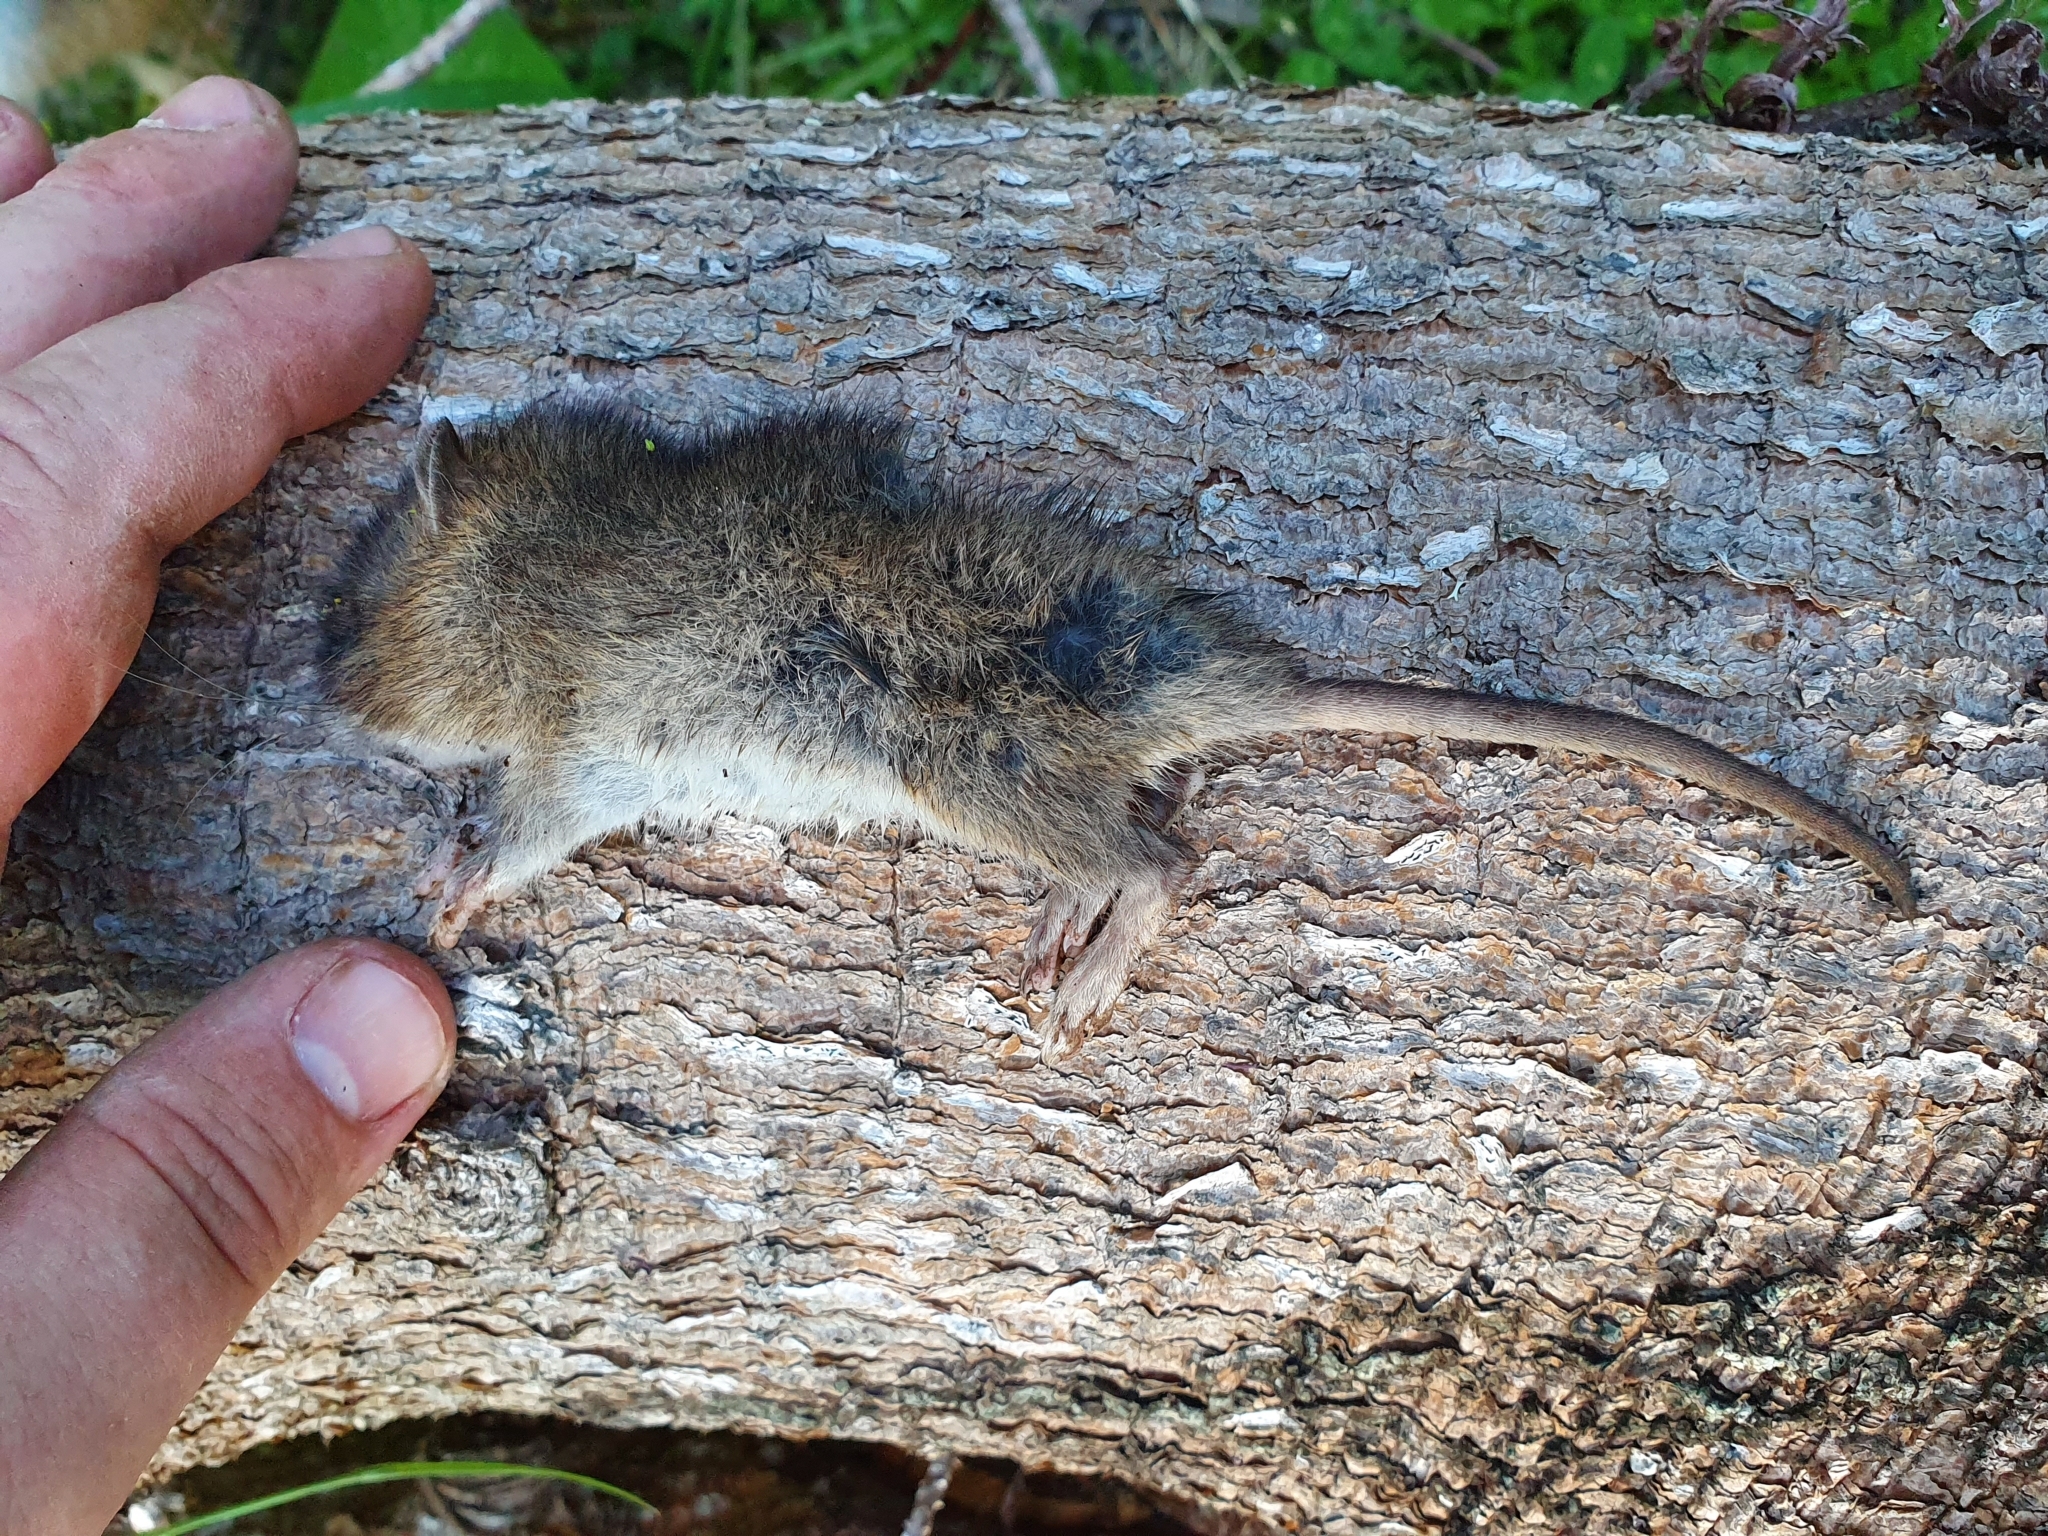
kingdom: Animalia
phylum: Chordata
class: Mammalia
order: Rodentia
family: Muridae
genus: Rattus
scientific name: Rattus norvegicus
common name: Brown rat
